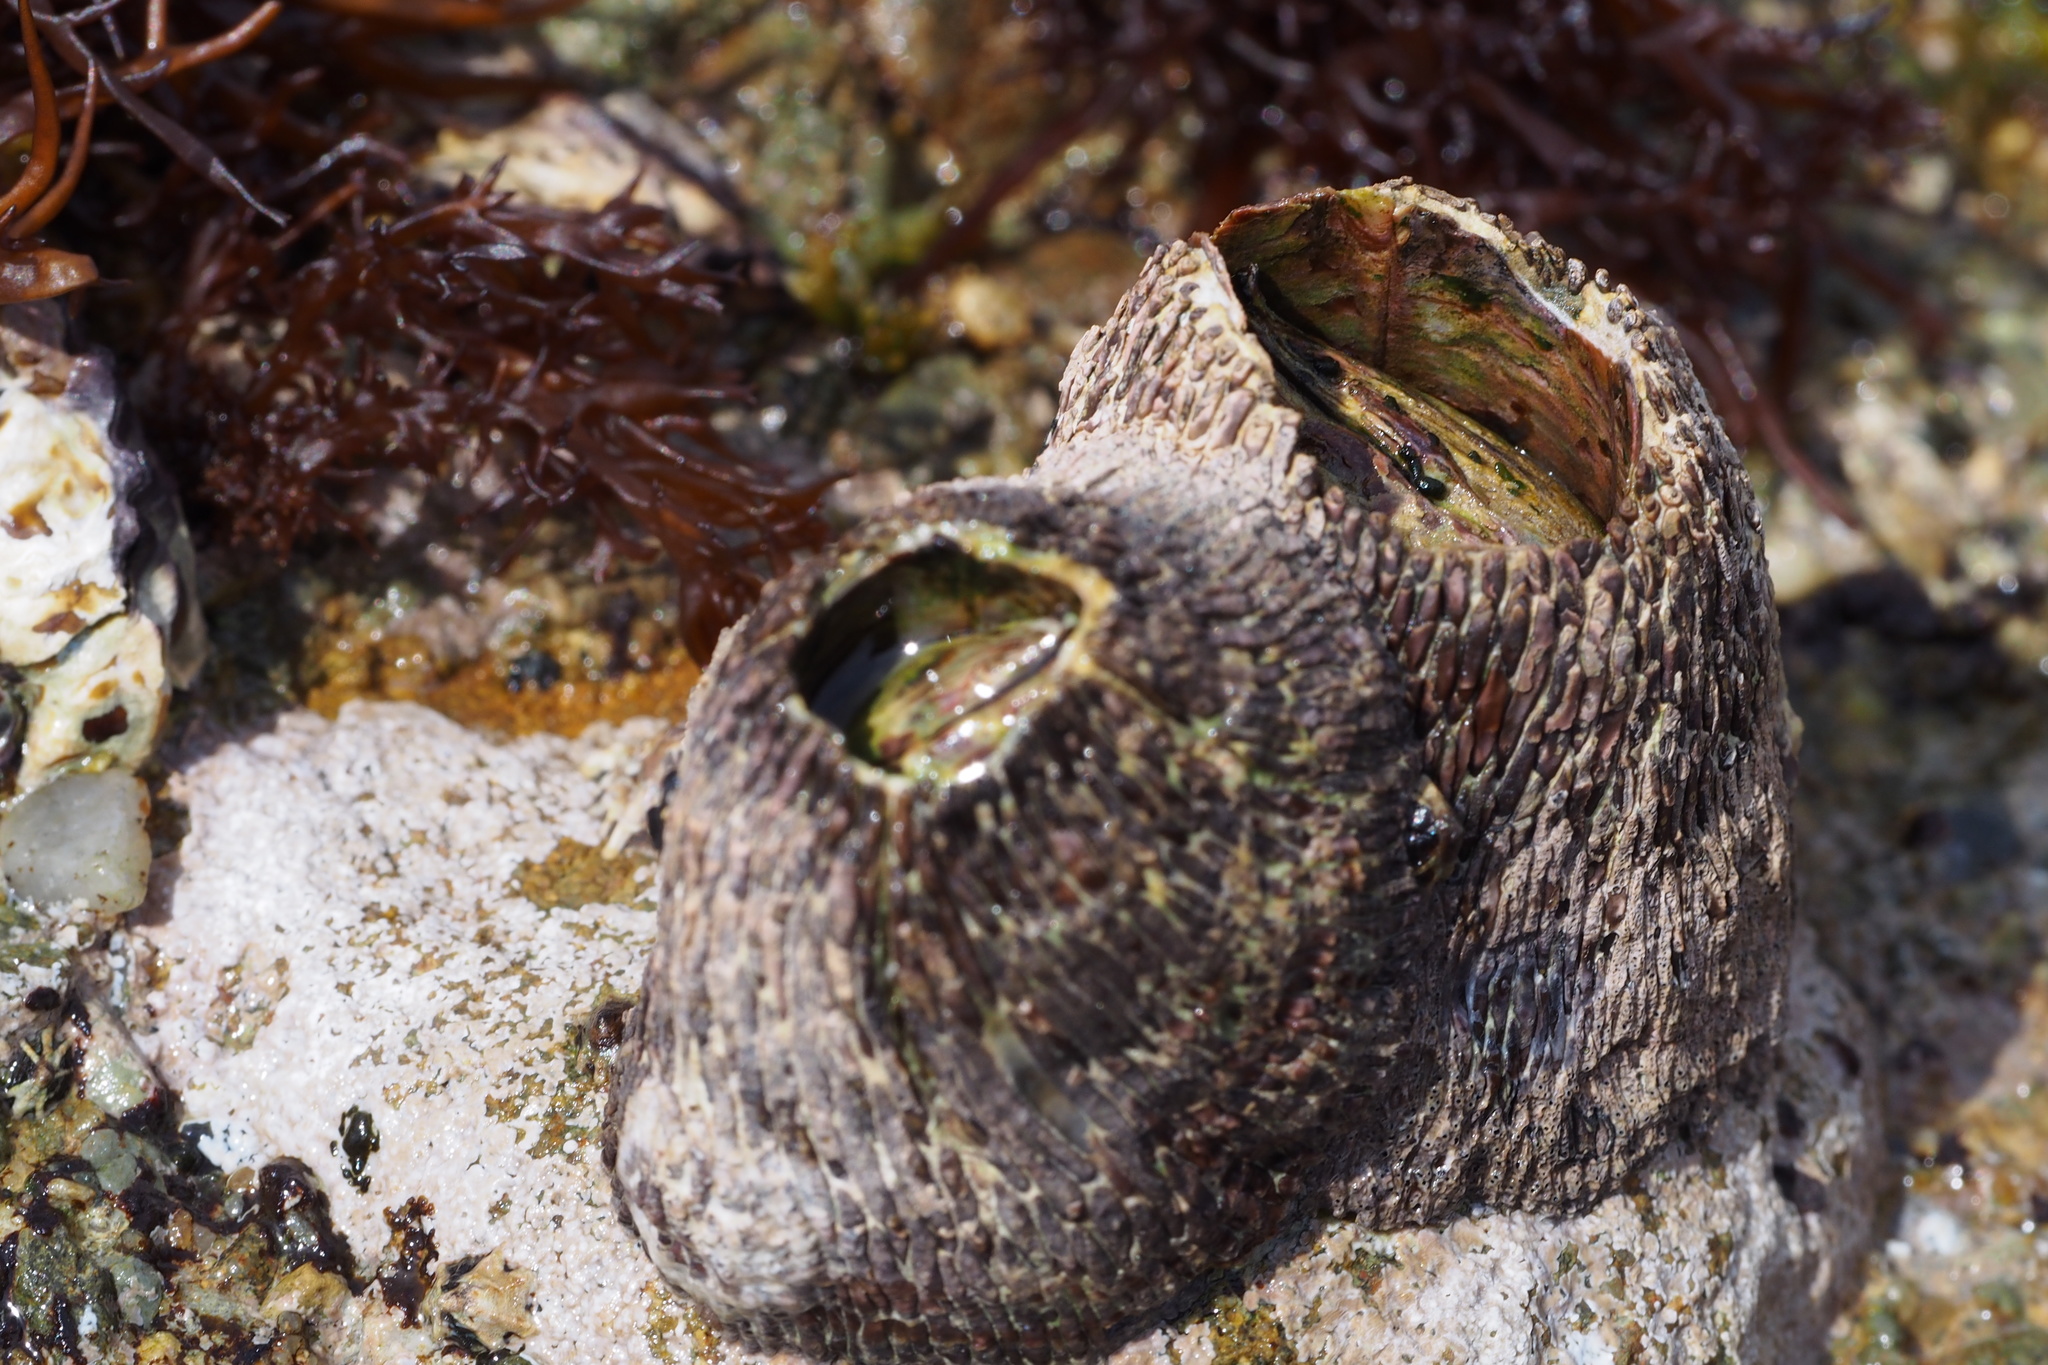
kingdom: Animalia
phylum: Arthropoda
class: Maxillopoda
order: Sessilia
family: Tetraclitidae
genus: Tetraclita
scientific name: Tetraclita japonica
